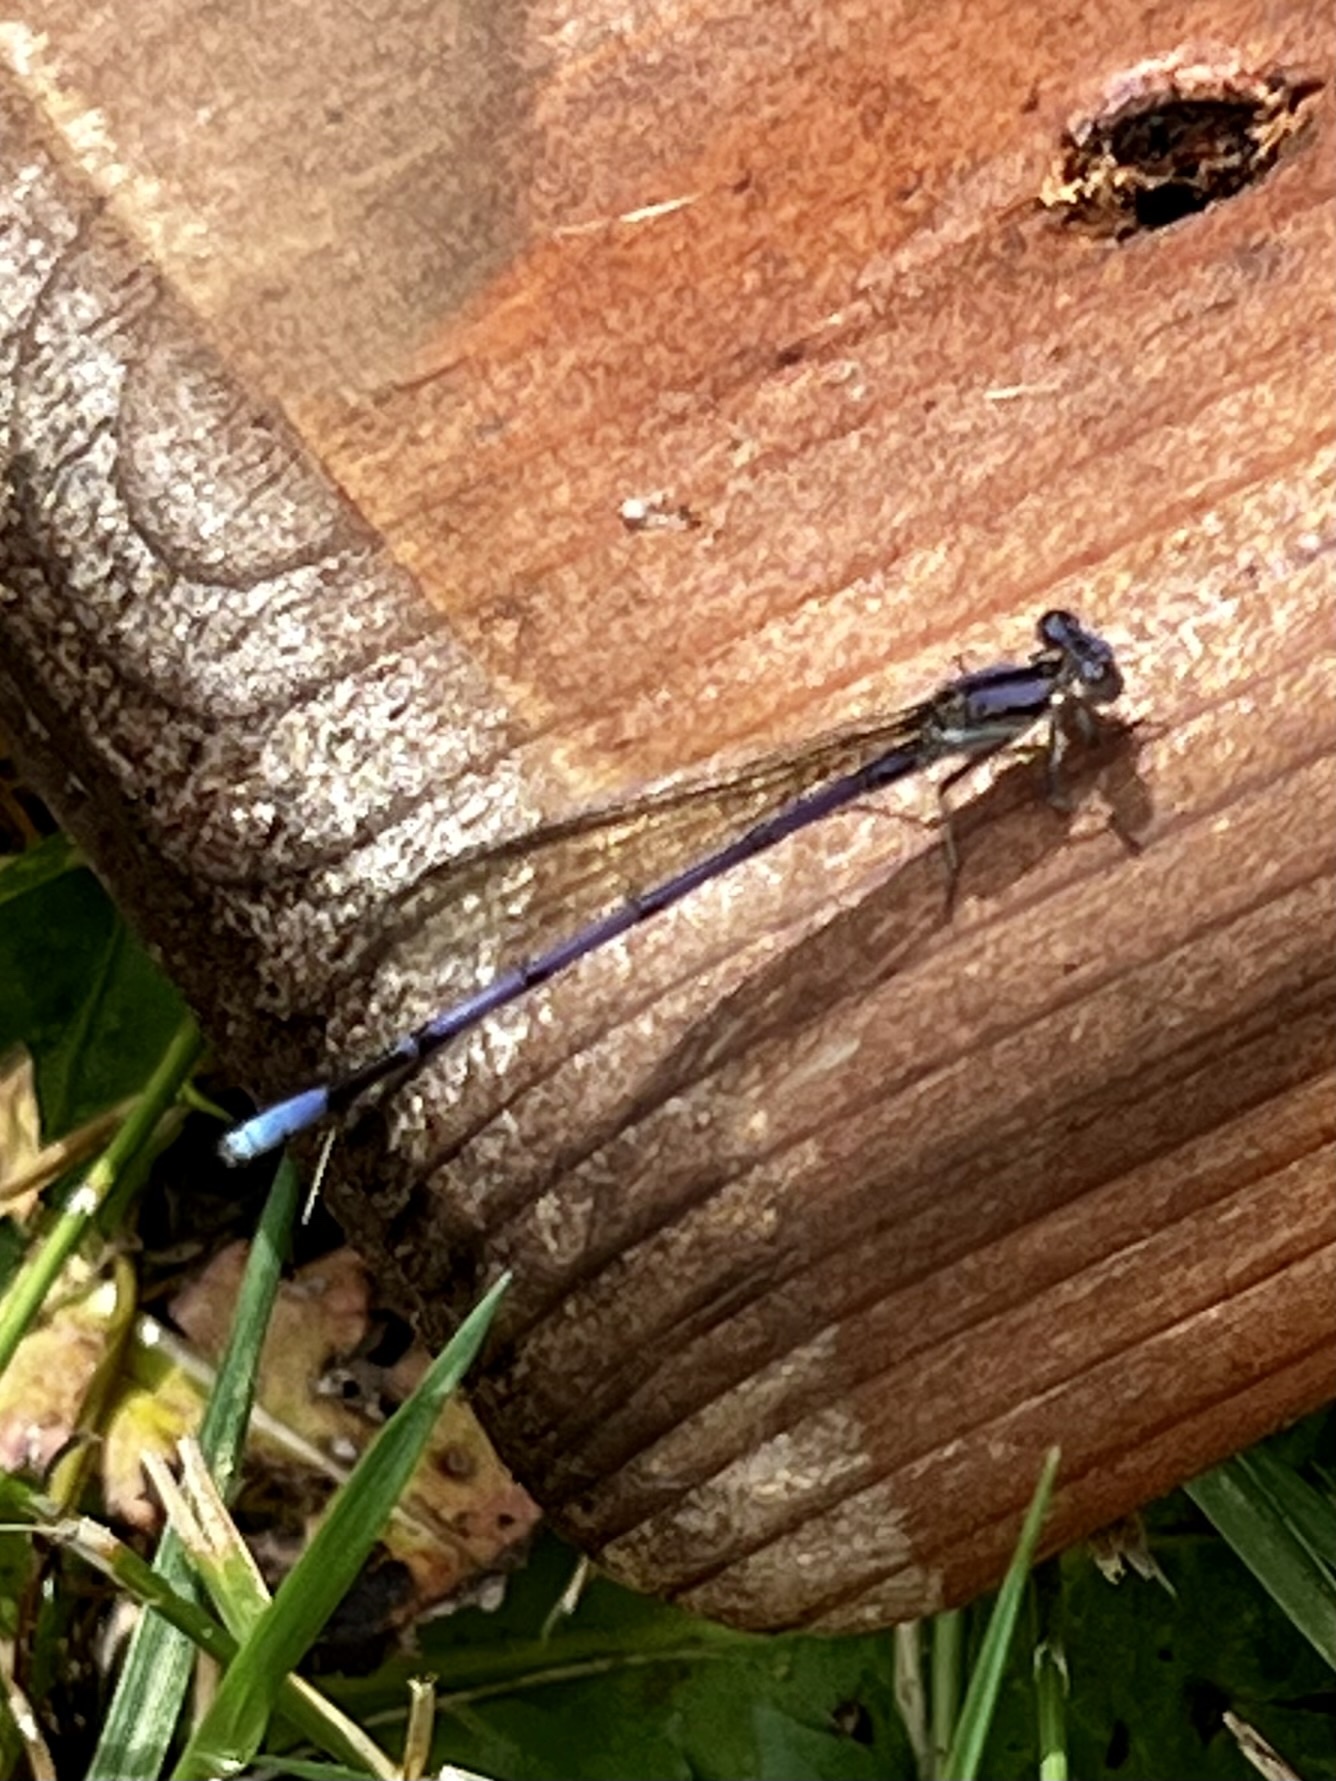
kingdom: Animalia
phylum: Arthropoda
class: Insecta
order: Odonata
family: Coenagrionidae
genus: Argia
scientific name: Argia fumipennis
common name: Variable dancer
